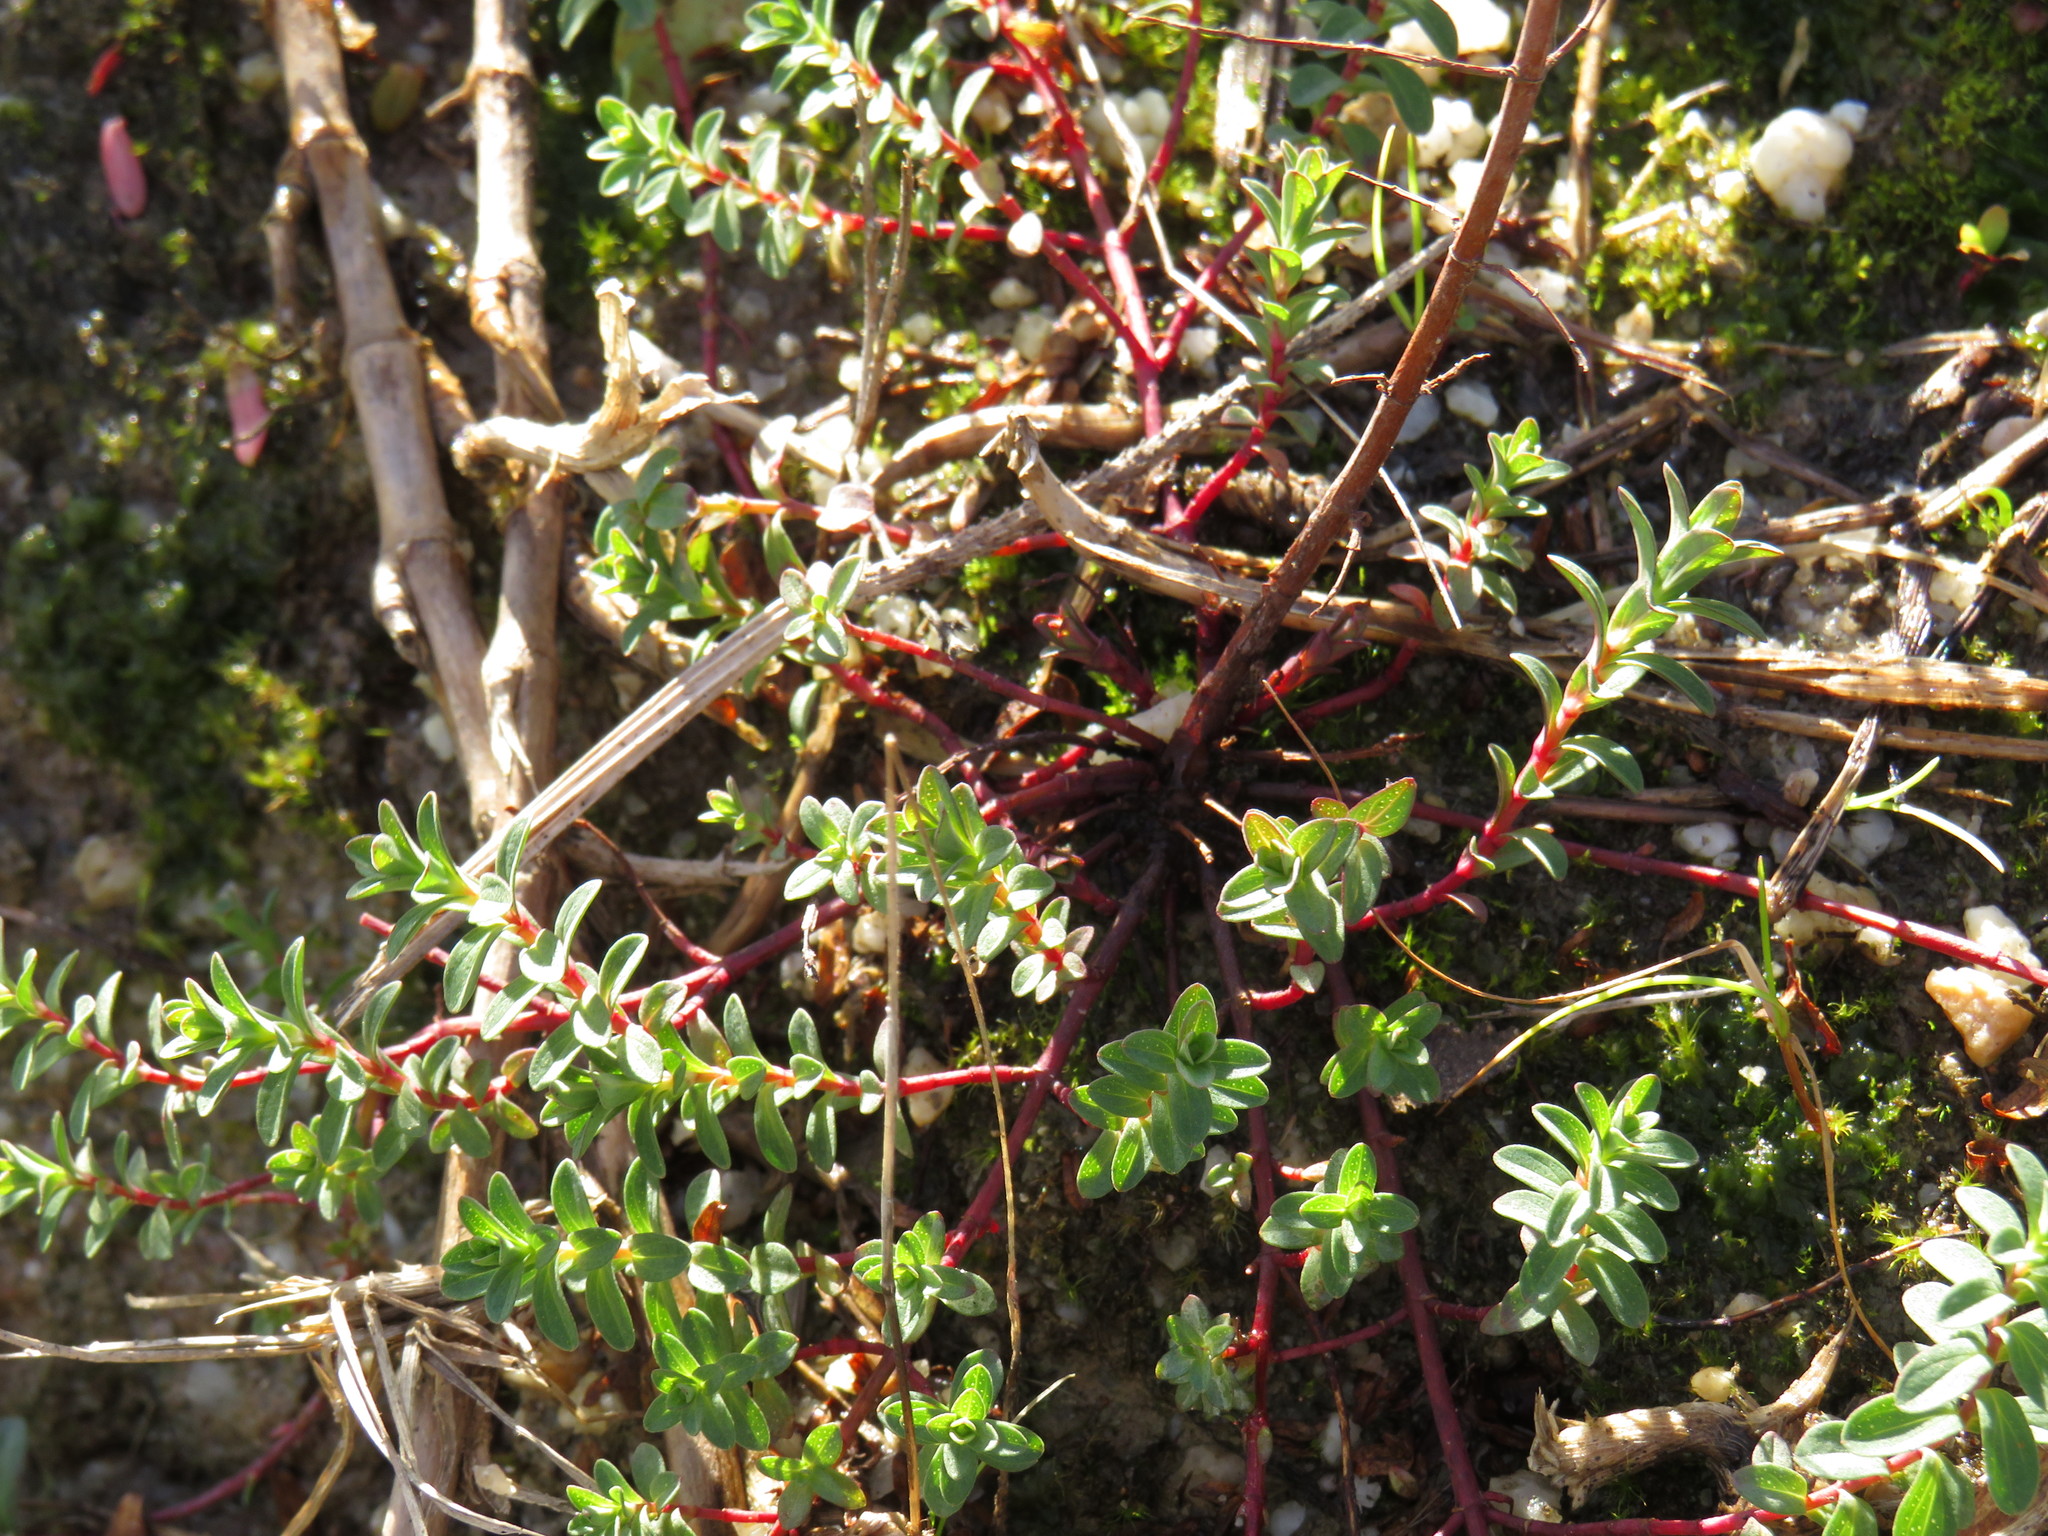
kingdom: Plantae
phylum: Tracheophyta
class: Magnoliopsida
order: Malpighiales
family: Hypericaceae
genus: Hypericum
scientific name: Hypericum perforatum
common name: Common st. johnswort
